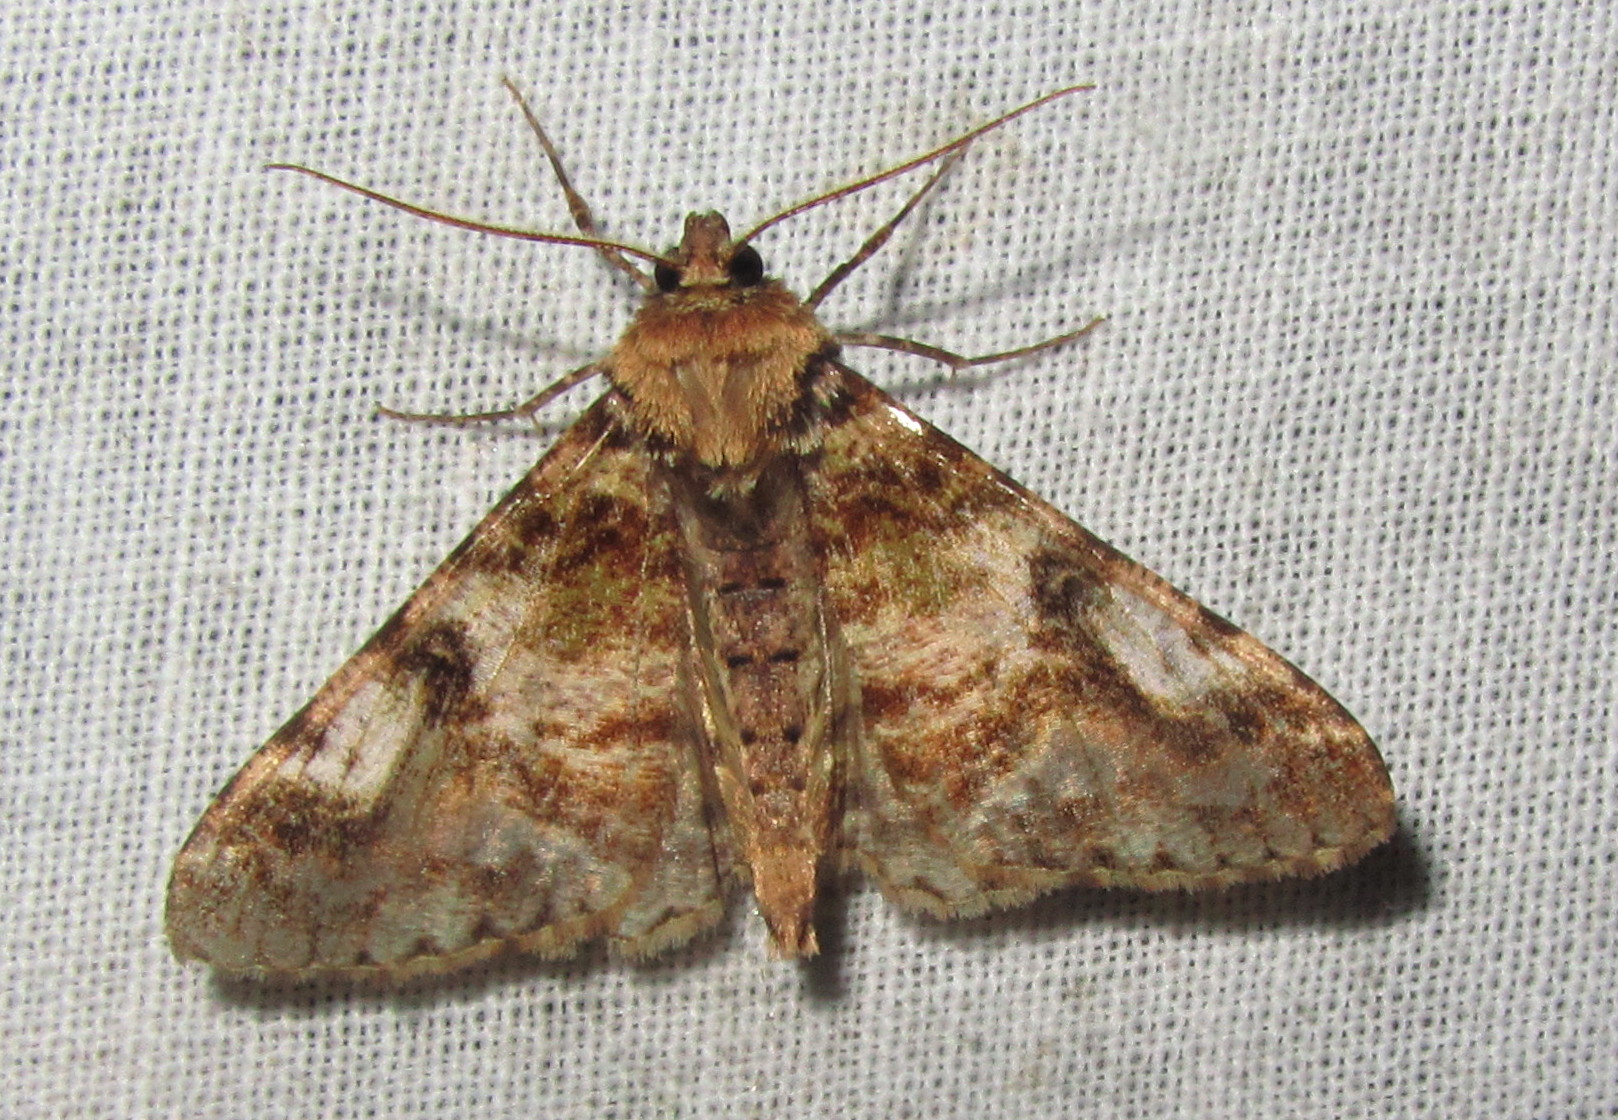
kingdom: Animalia
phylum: Arthropoda
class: Insecta
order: Lepidoptera
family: Geometridae
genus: Gasterocome
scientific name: Gasterocome pannosaria
